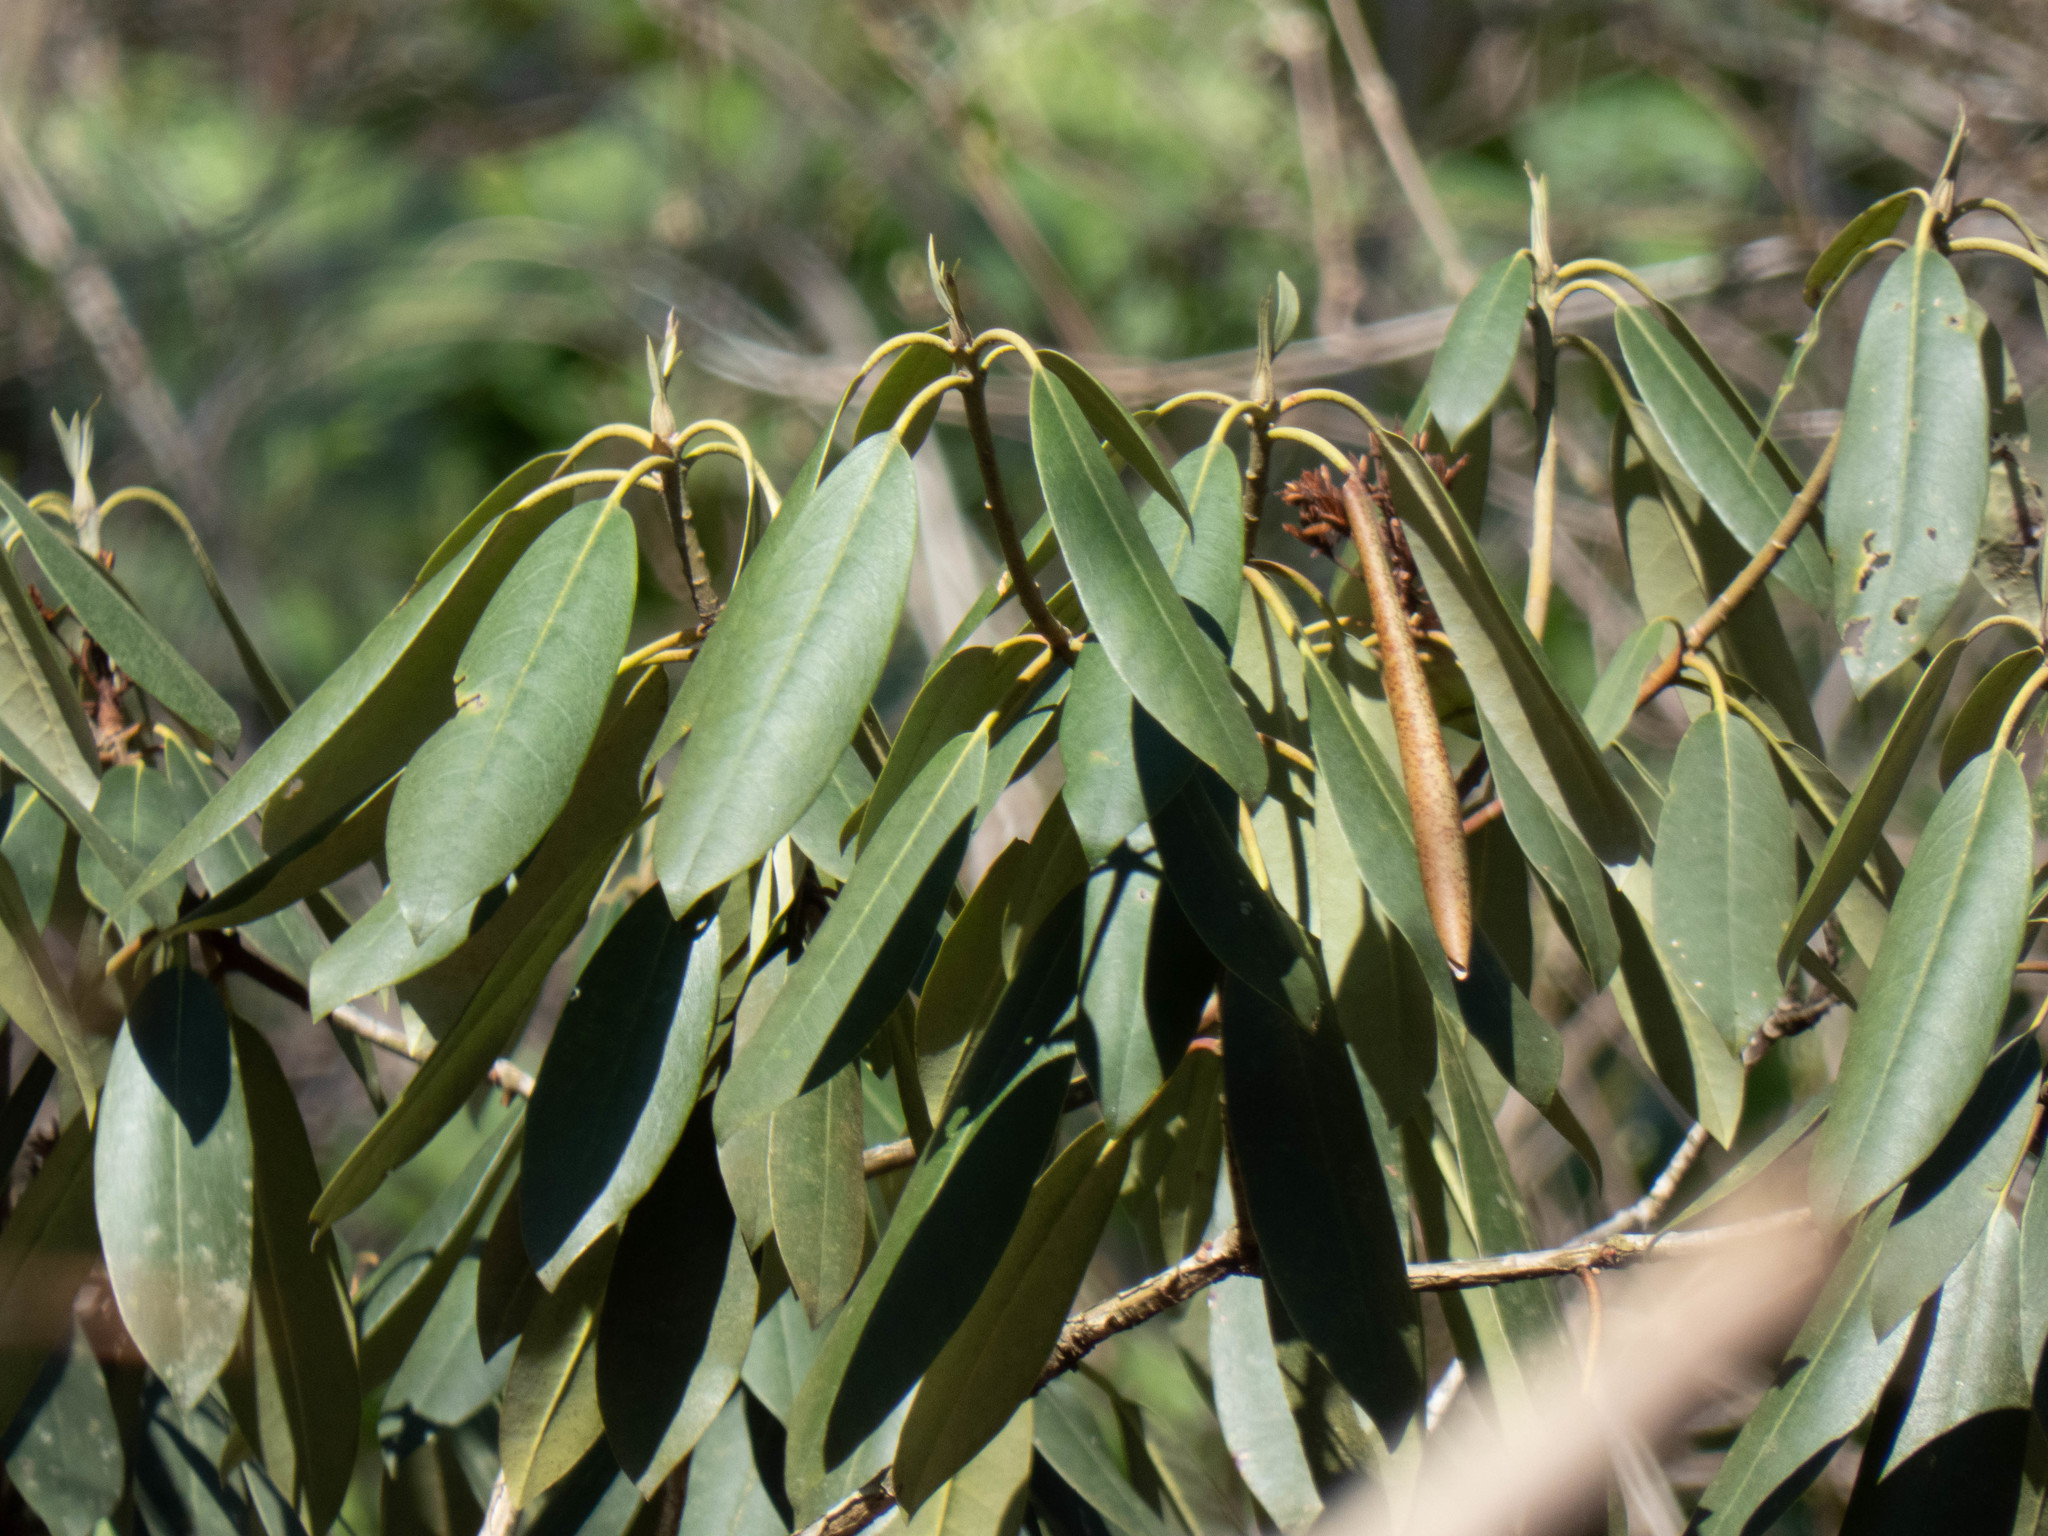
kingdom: Plantae
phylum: Tracheophyta
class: Magnoliopsida
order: Ericales
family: Ericaceae
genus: Rhododendron
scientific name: Rhododendron maximum
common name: Great rhododendron
